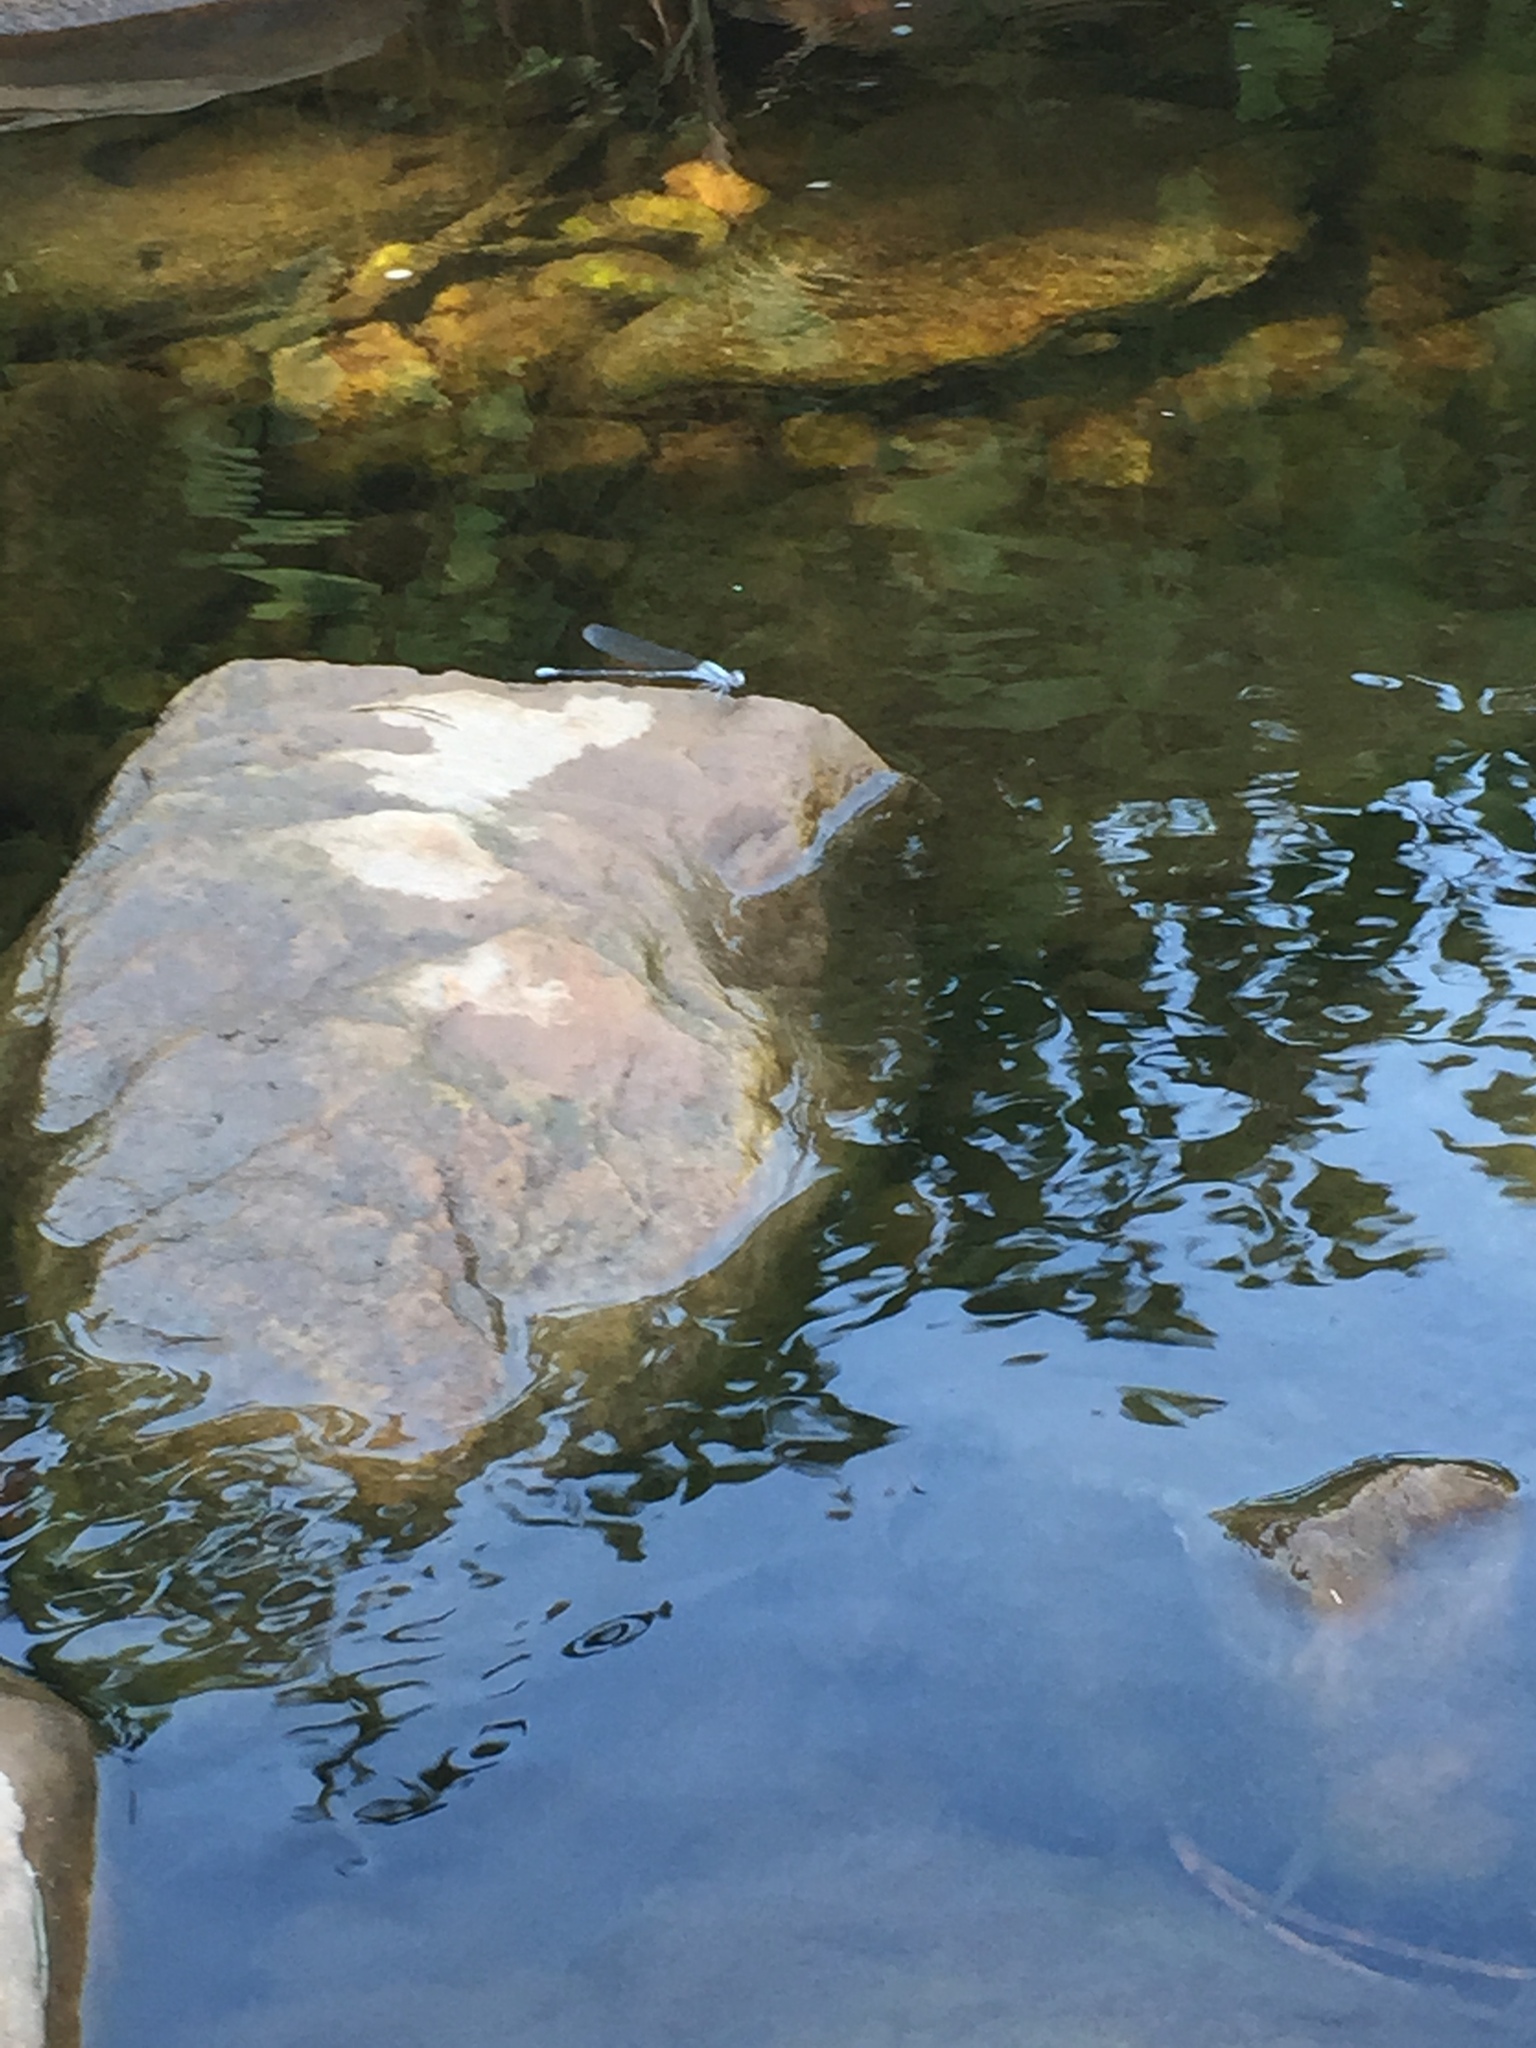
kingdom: Animalia
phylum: Arthropoda
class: Insecta
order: Odonata
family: Coenagrionidae
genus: Argia
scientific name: Argia moesta
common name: Powdered dancer
